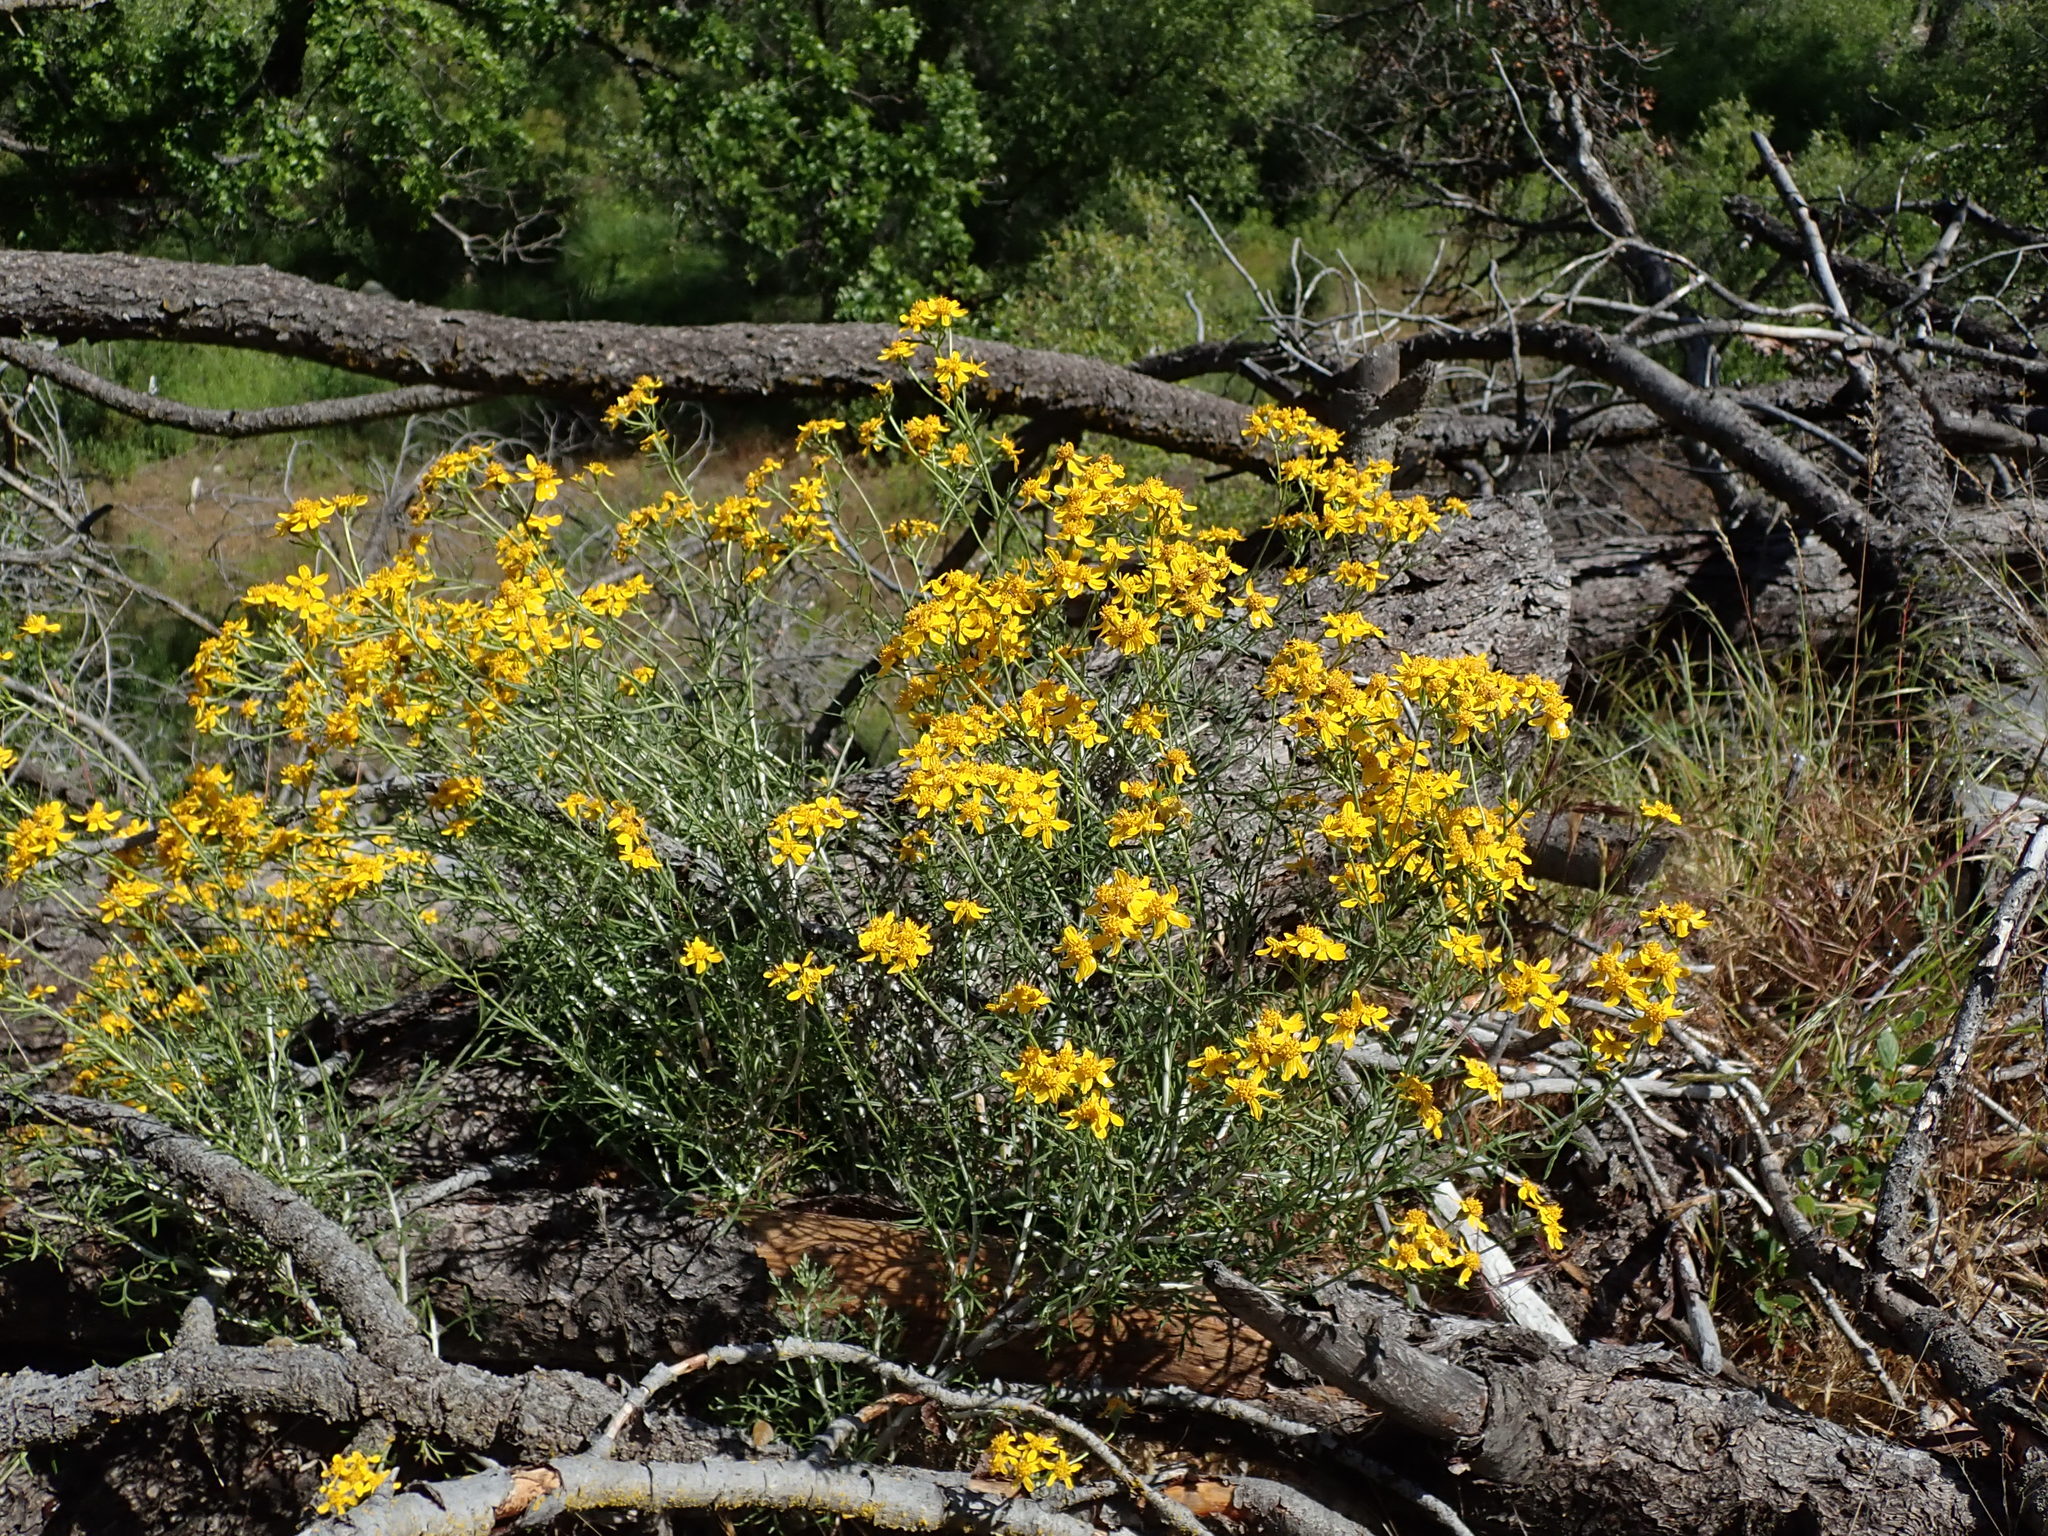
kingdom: Plantae
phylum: Tracheophyta
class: Magnoliopsida
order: Asterales
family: Asteraceae
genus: Eriophyllum
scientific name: Eriophyllum confertiflorum
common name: Golden-yarrow
